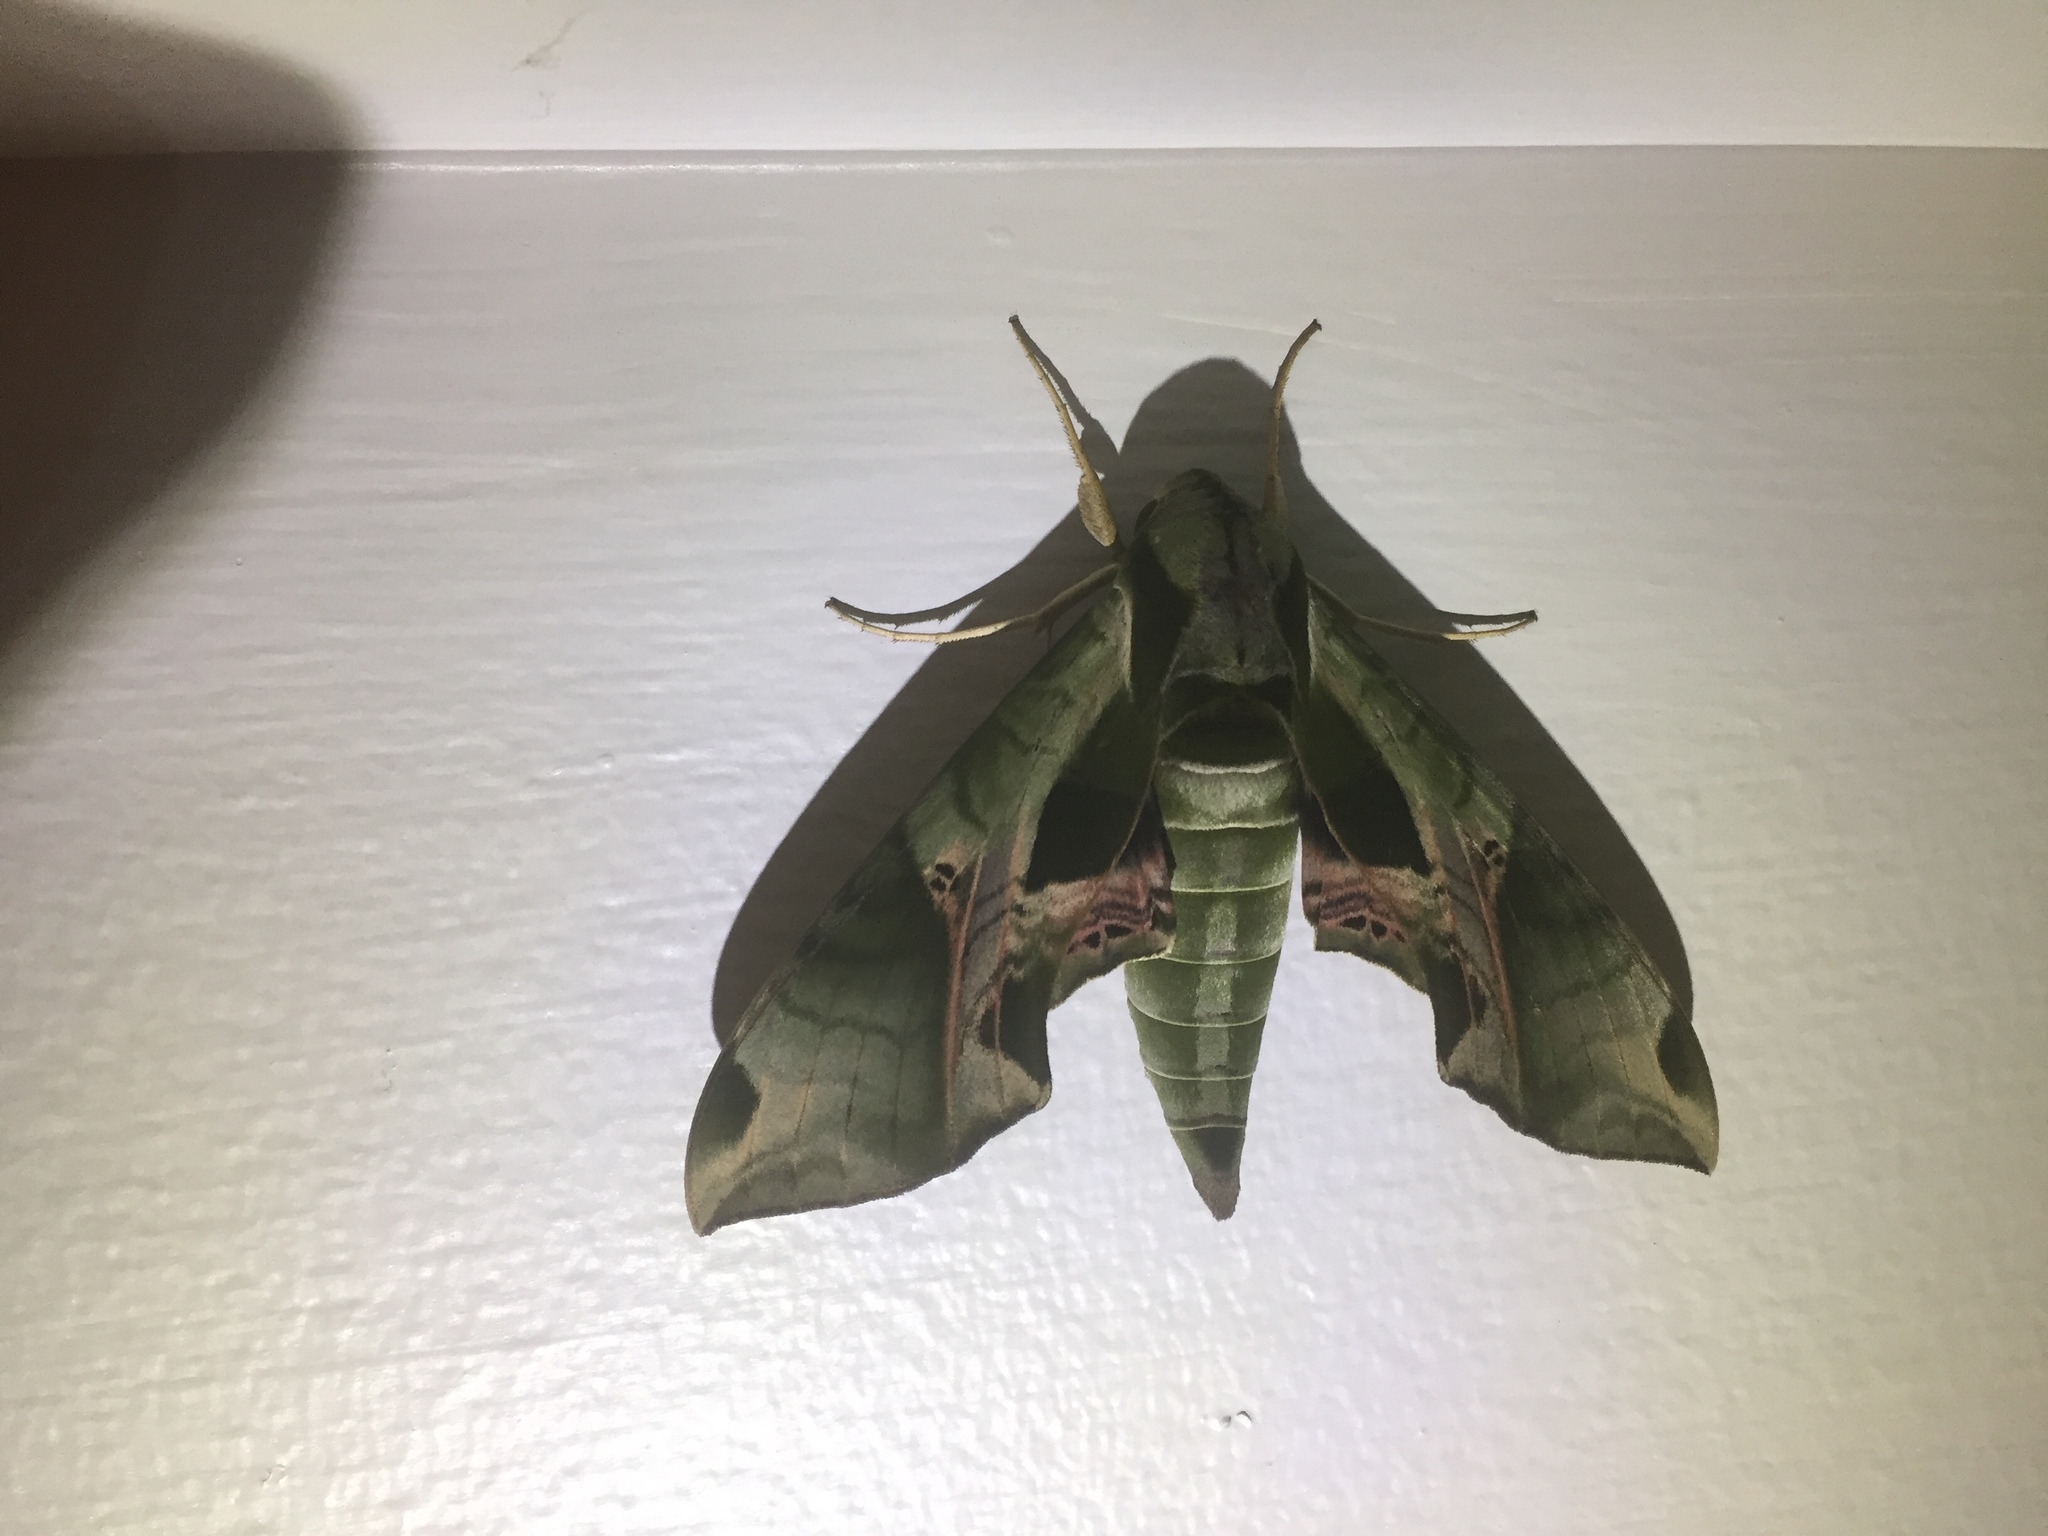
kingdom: Animalia
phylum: Arthropoda
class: Insecta
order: Lepidoptera
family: Sphingidae
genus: Eumorpha
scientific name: Eumorpha pandorus
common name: Pandora sphinx
